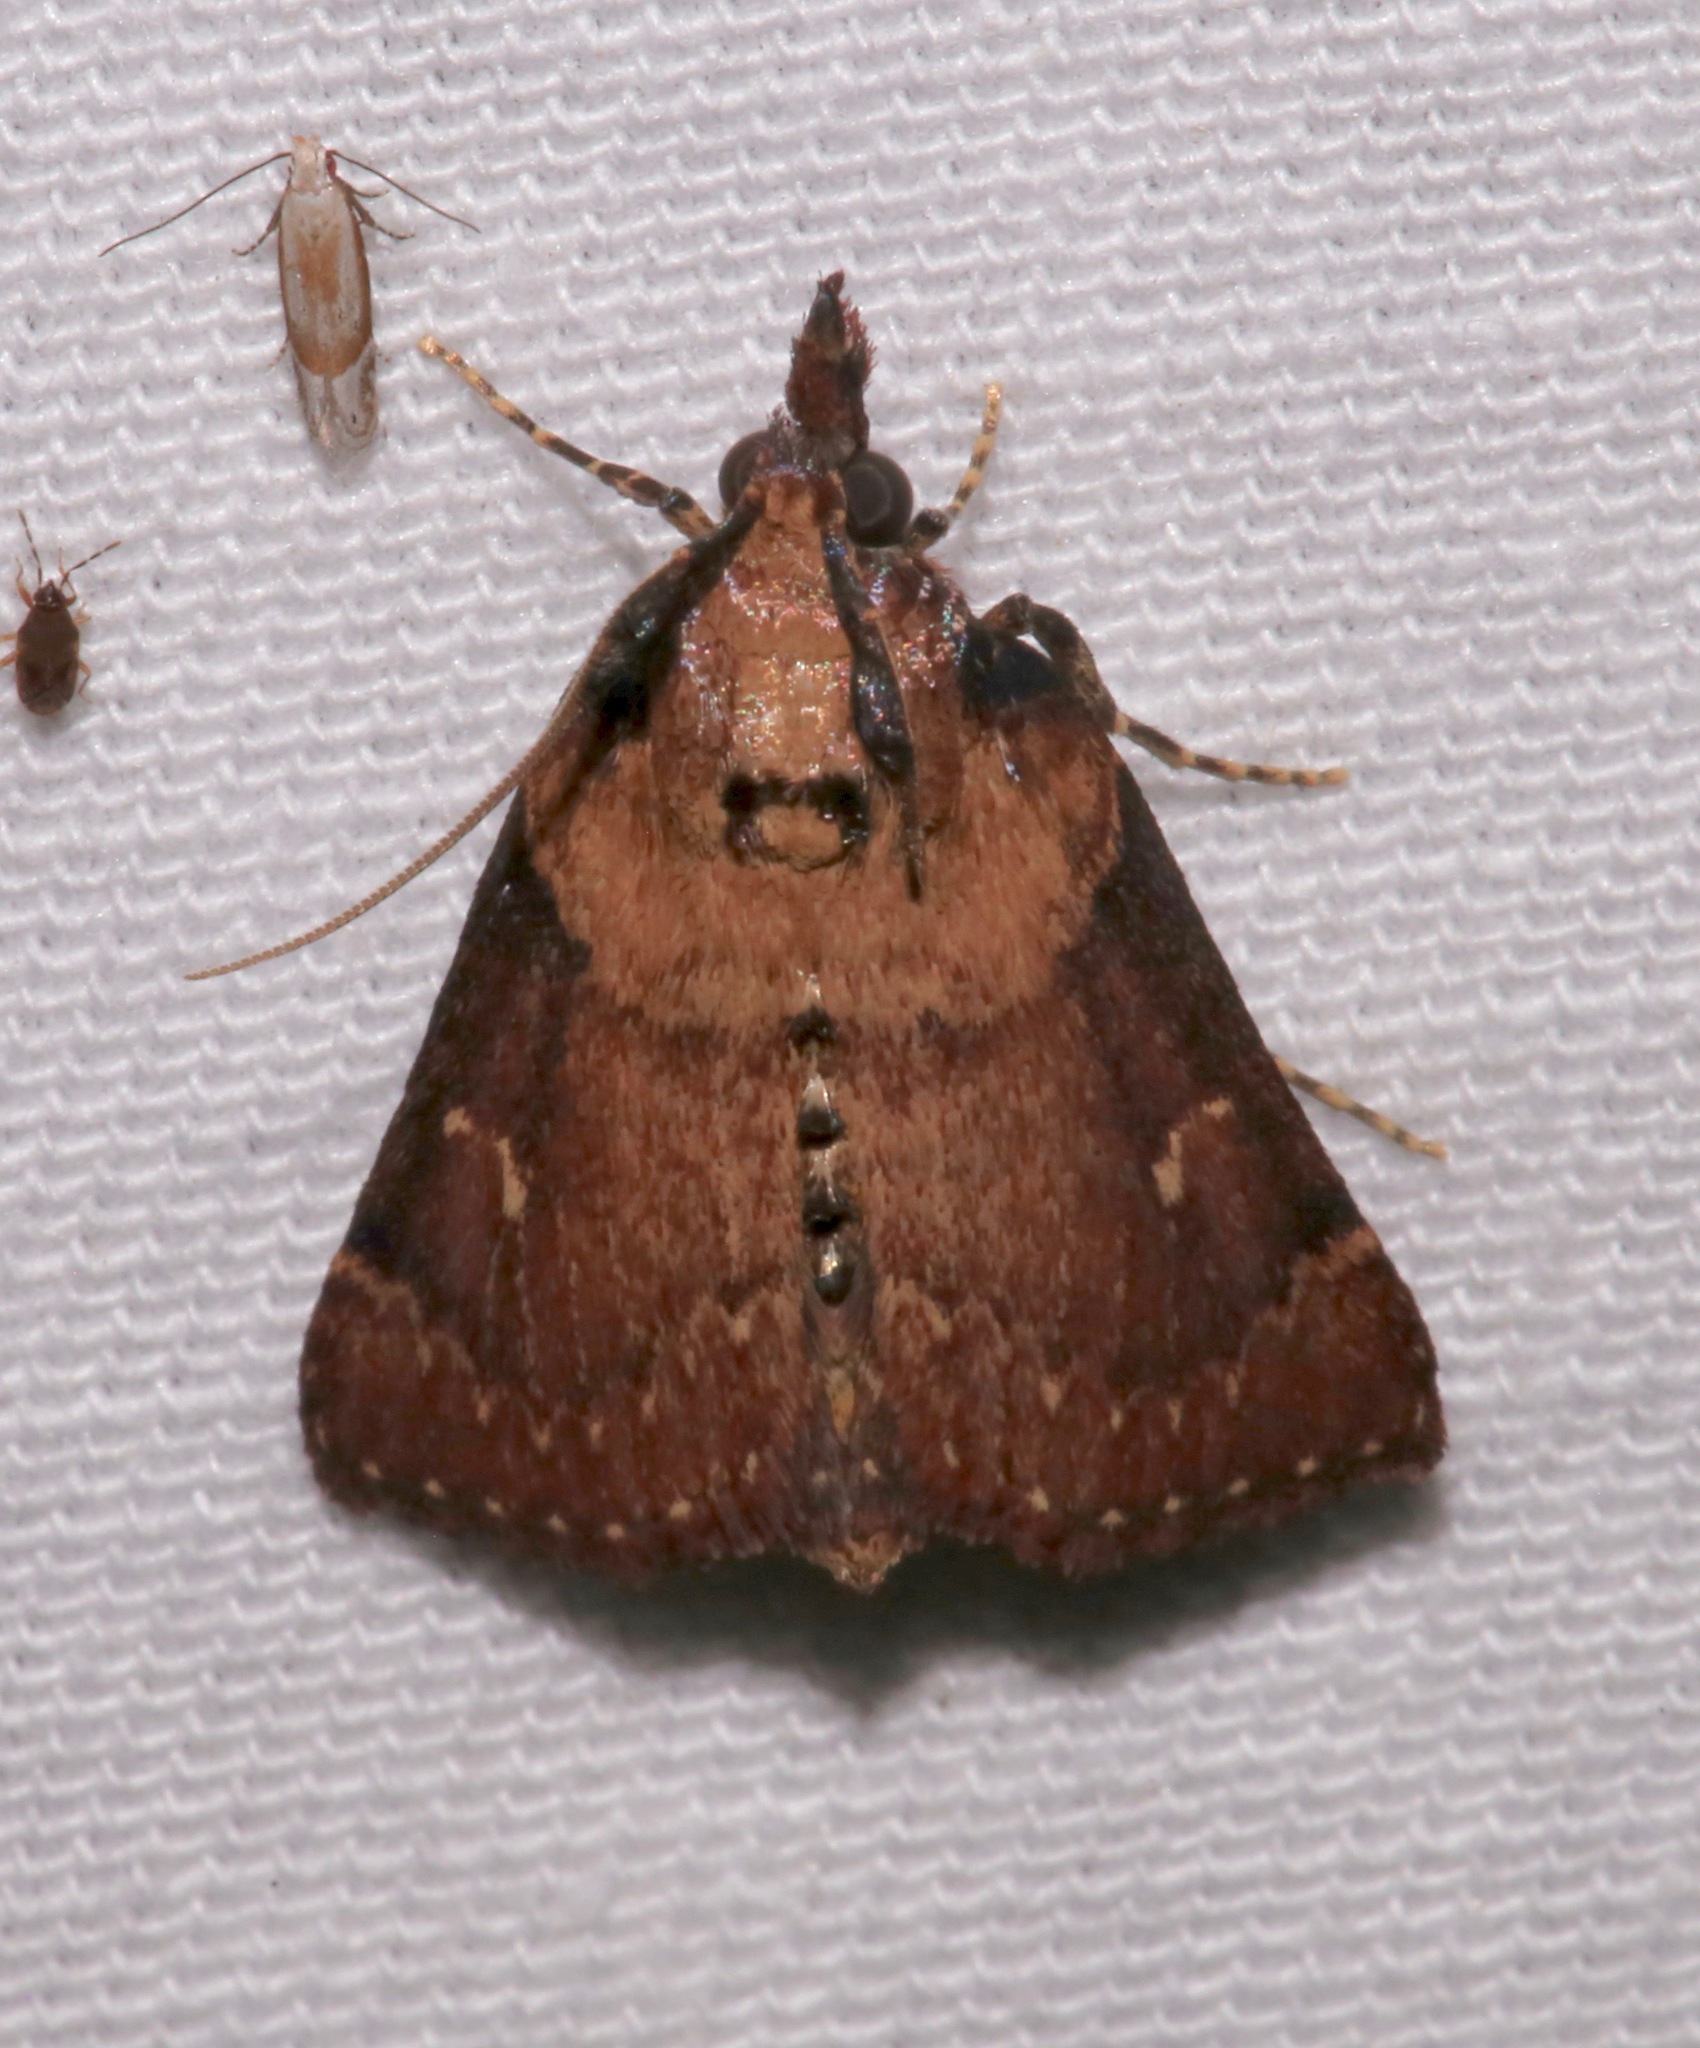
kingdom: Animalia
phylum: Arthropoda
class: Insecta
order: Lepidoptera
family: Pyralidae
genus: Omphalocera
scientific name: Omphalocera munroei
